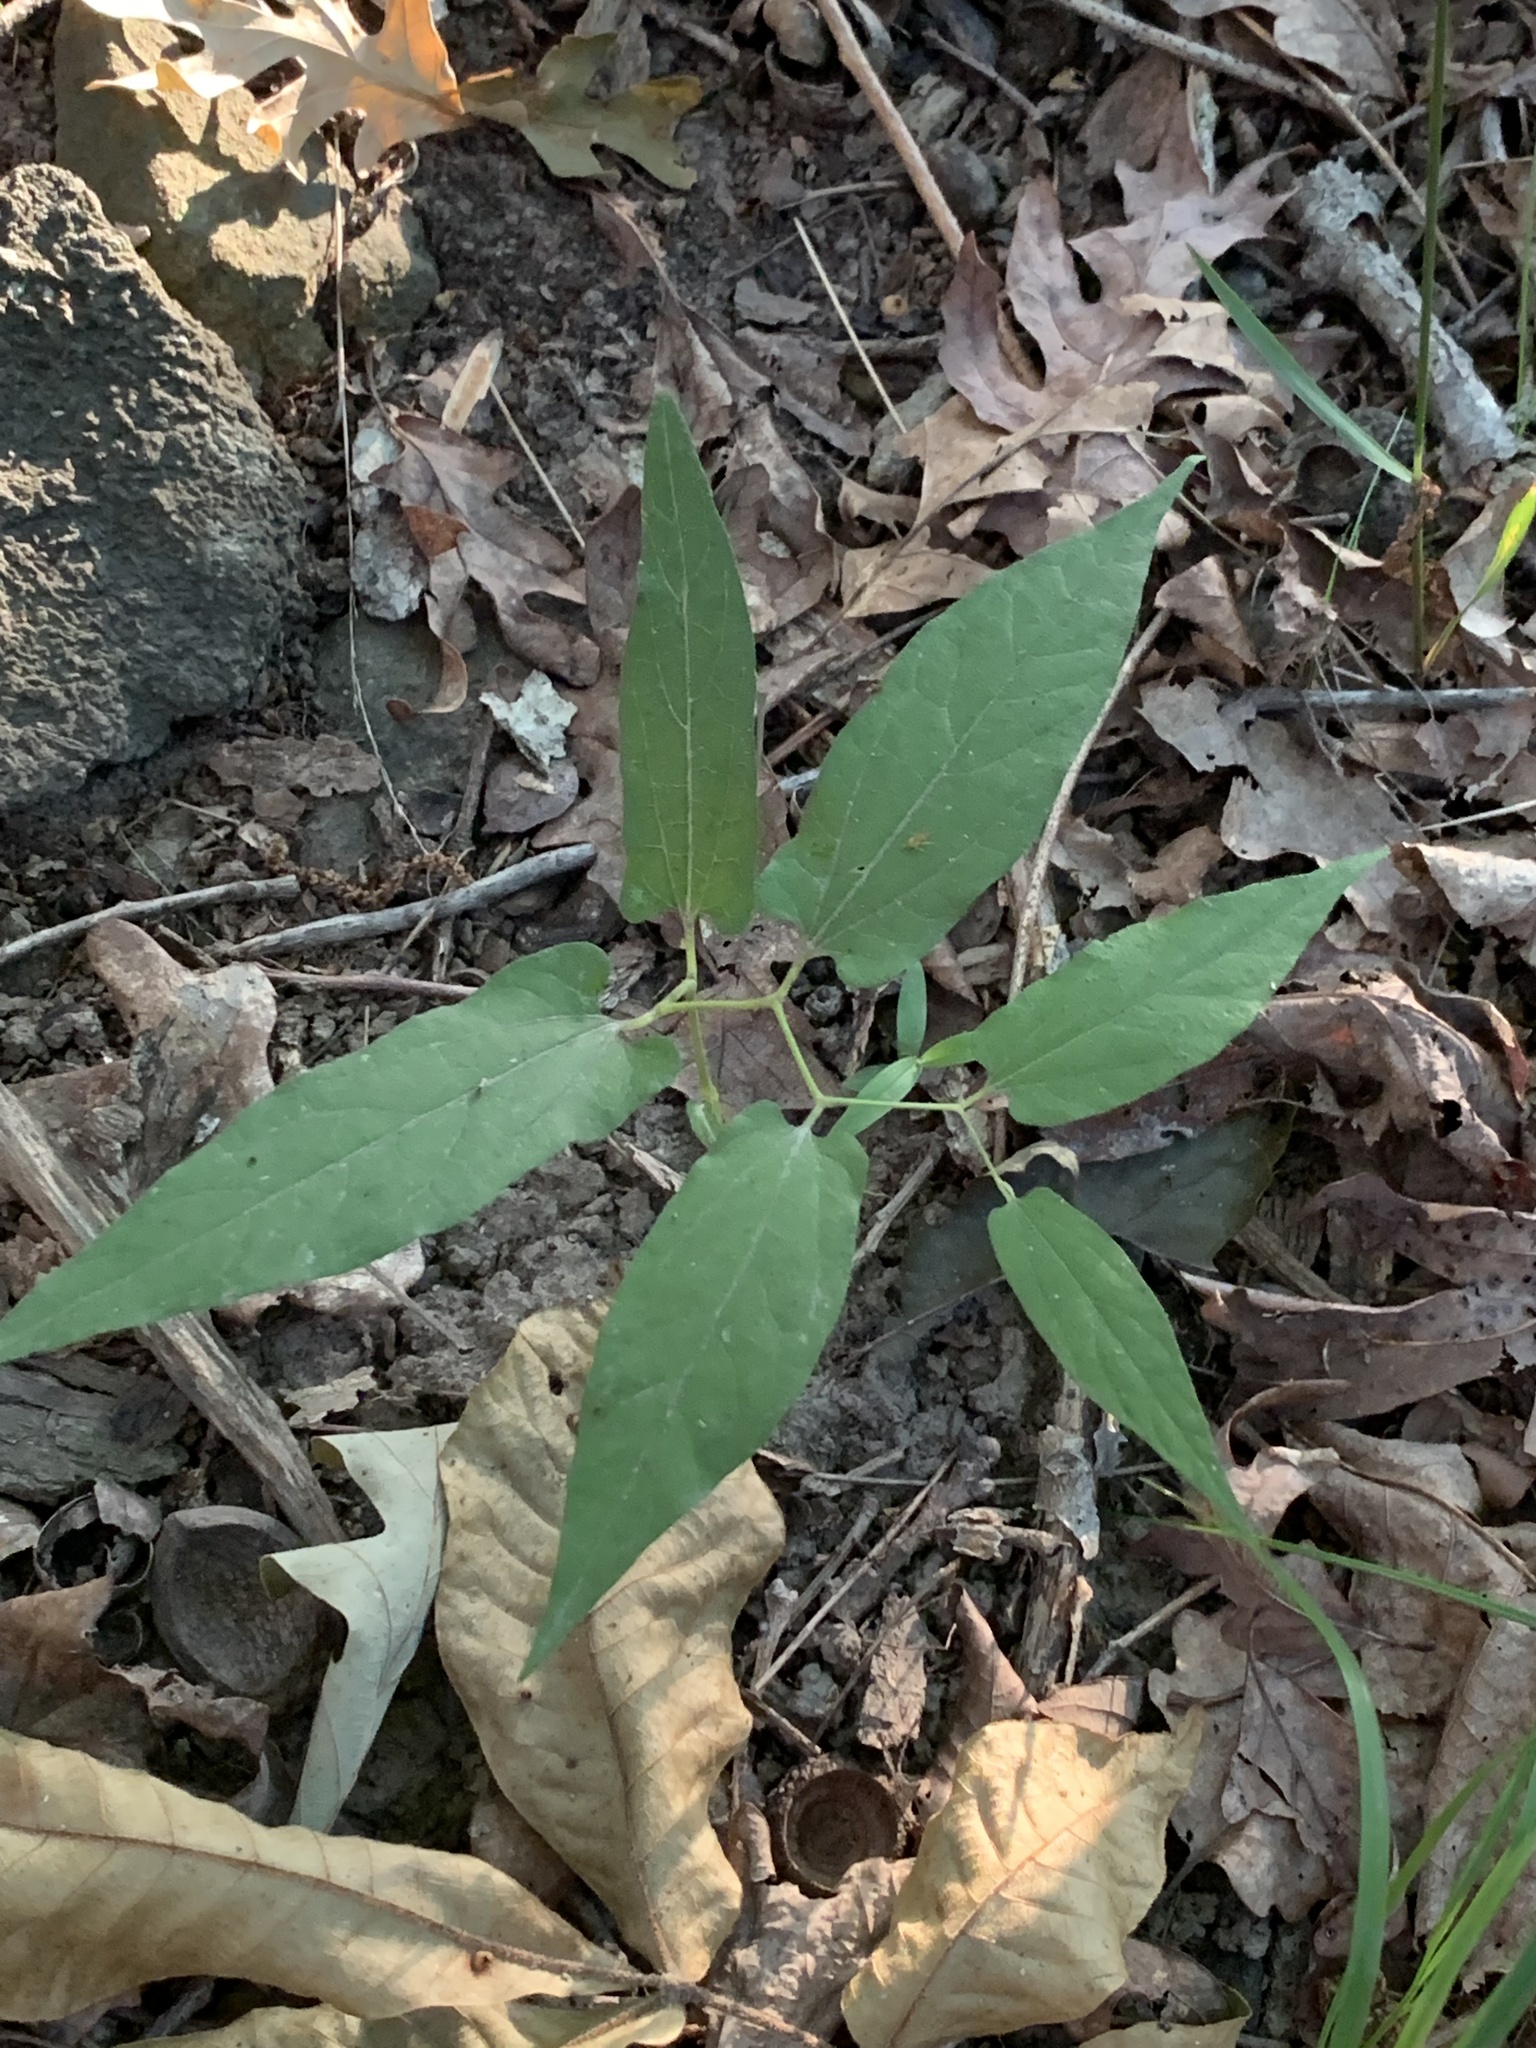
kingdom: Plantae
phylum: Tracheophyta
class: Magnoliopsida
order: Piperales
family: Aristolochiaceae
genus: Endodeca
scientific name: Endodeca serpentaria
